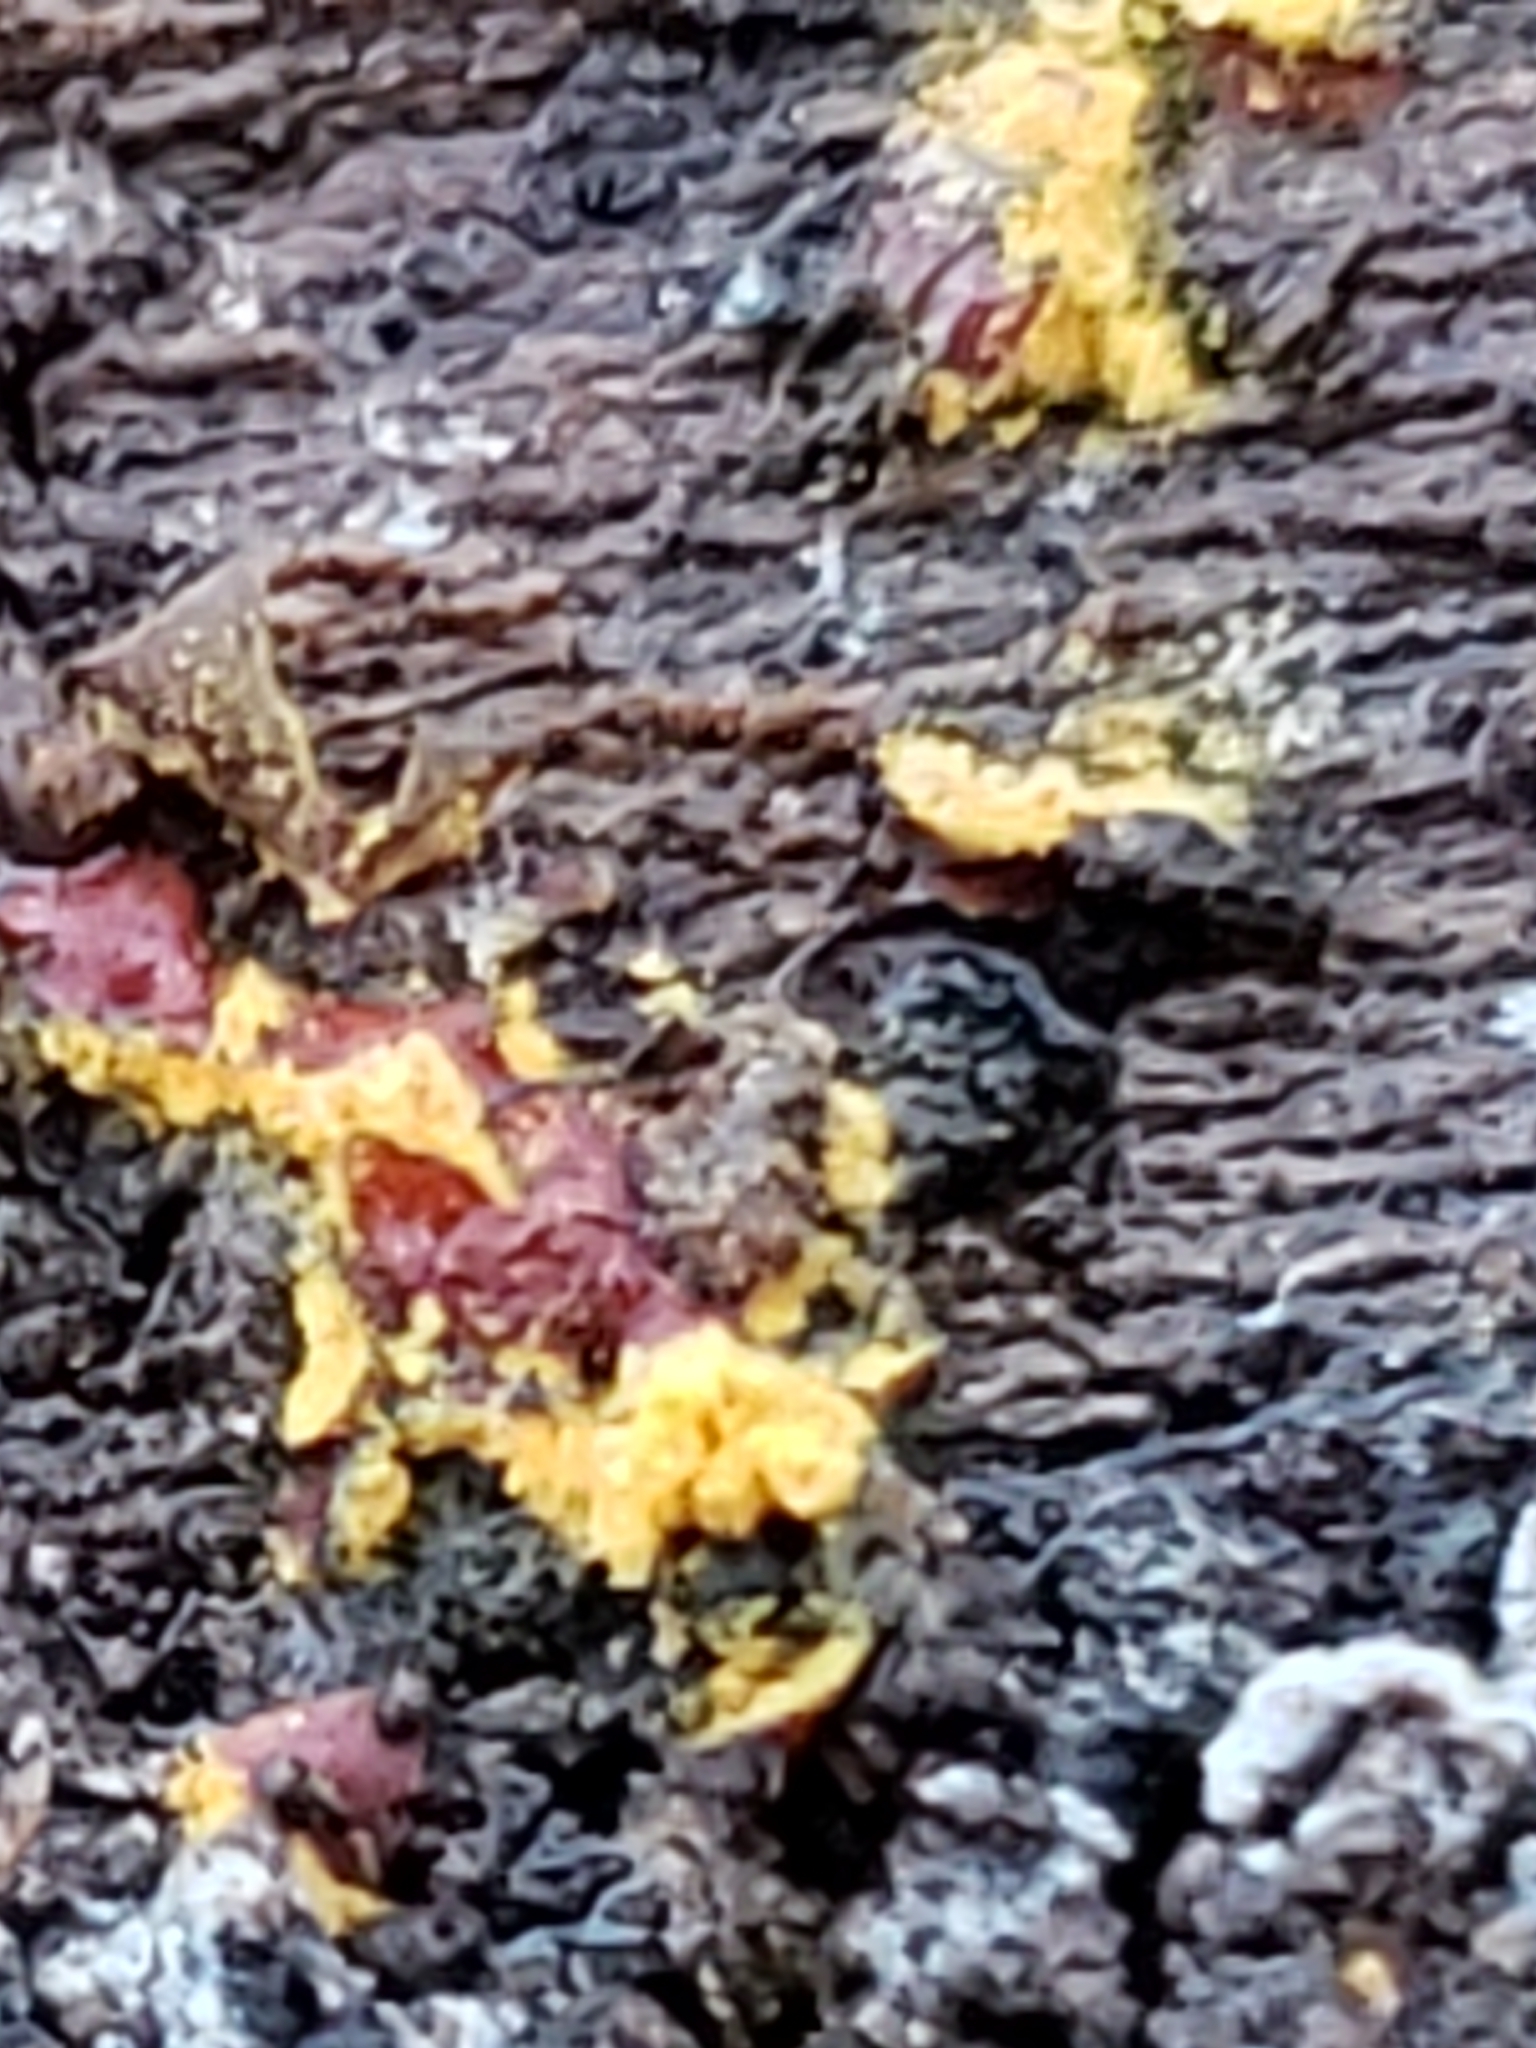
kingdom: Protozoa
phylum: Mycetozoa
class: Myxomycetes
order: Trichiales
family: Trichiaceae
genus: Perichaena
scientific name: Perichaena depressa
